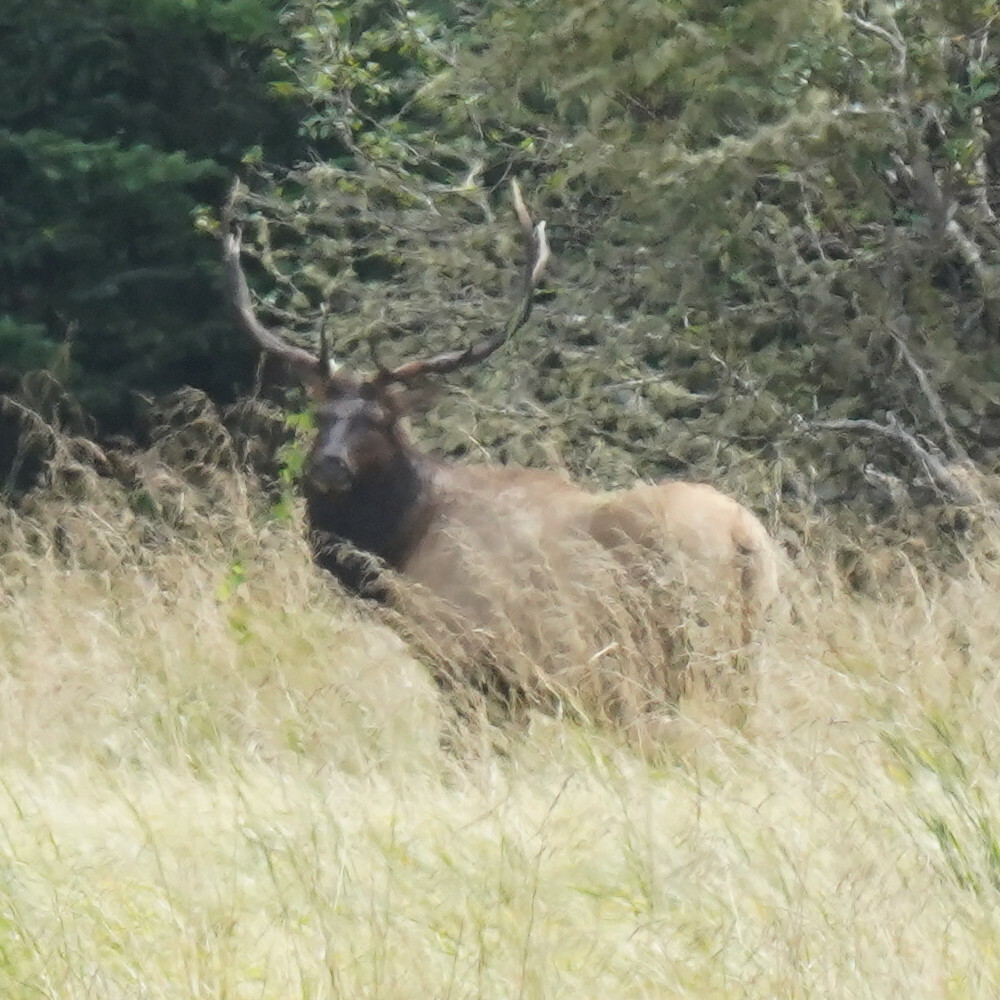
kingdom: Animalia
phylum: Chordata
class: Mammalia
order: Artiodactyla
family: Cervidae
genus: Cervus
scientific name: Cervus elaphus
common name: Red deer
